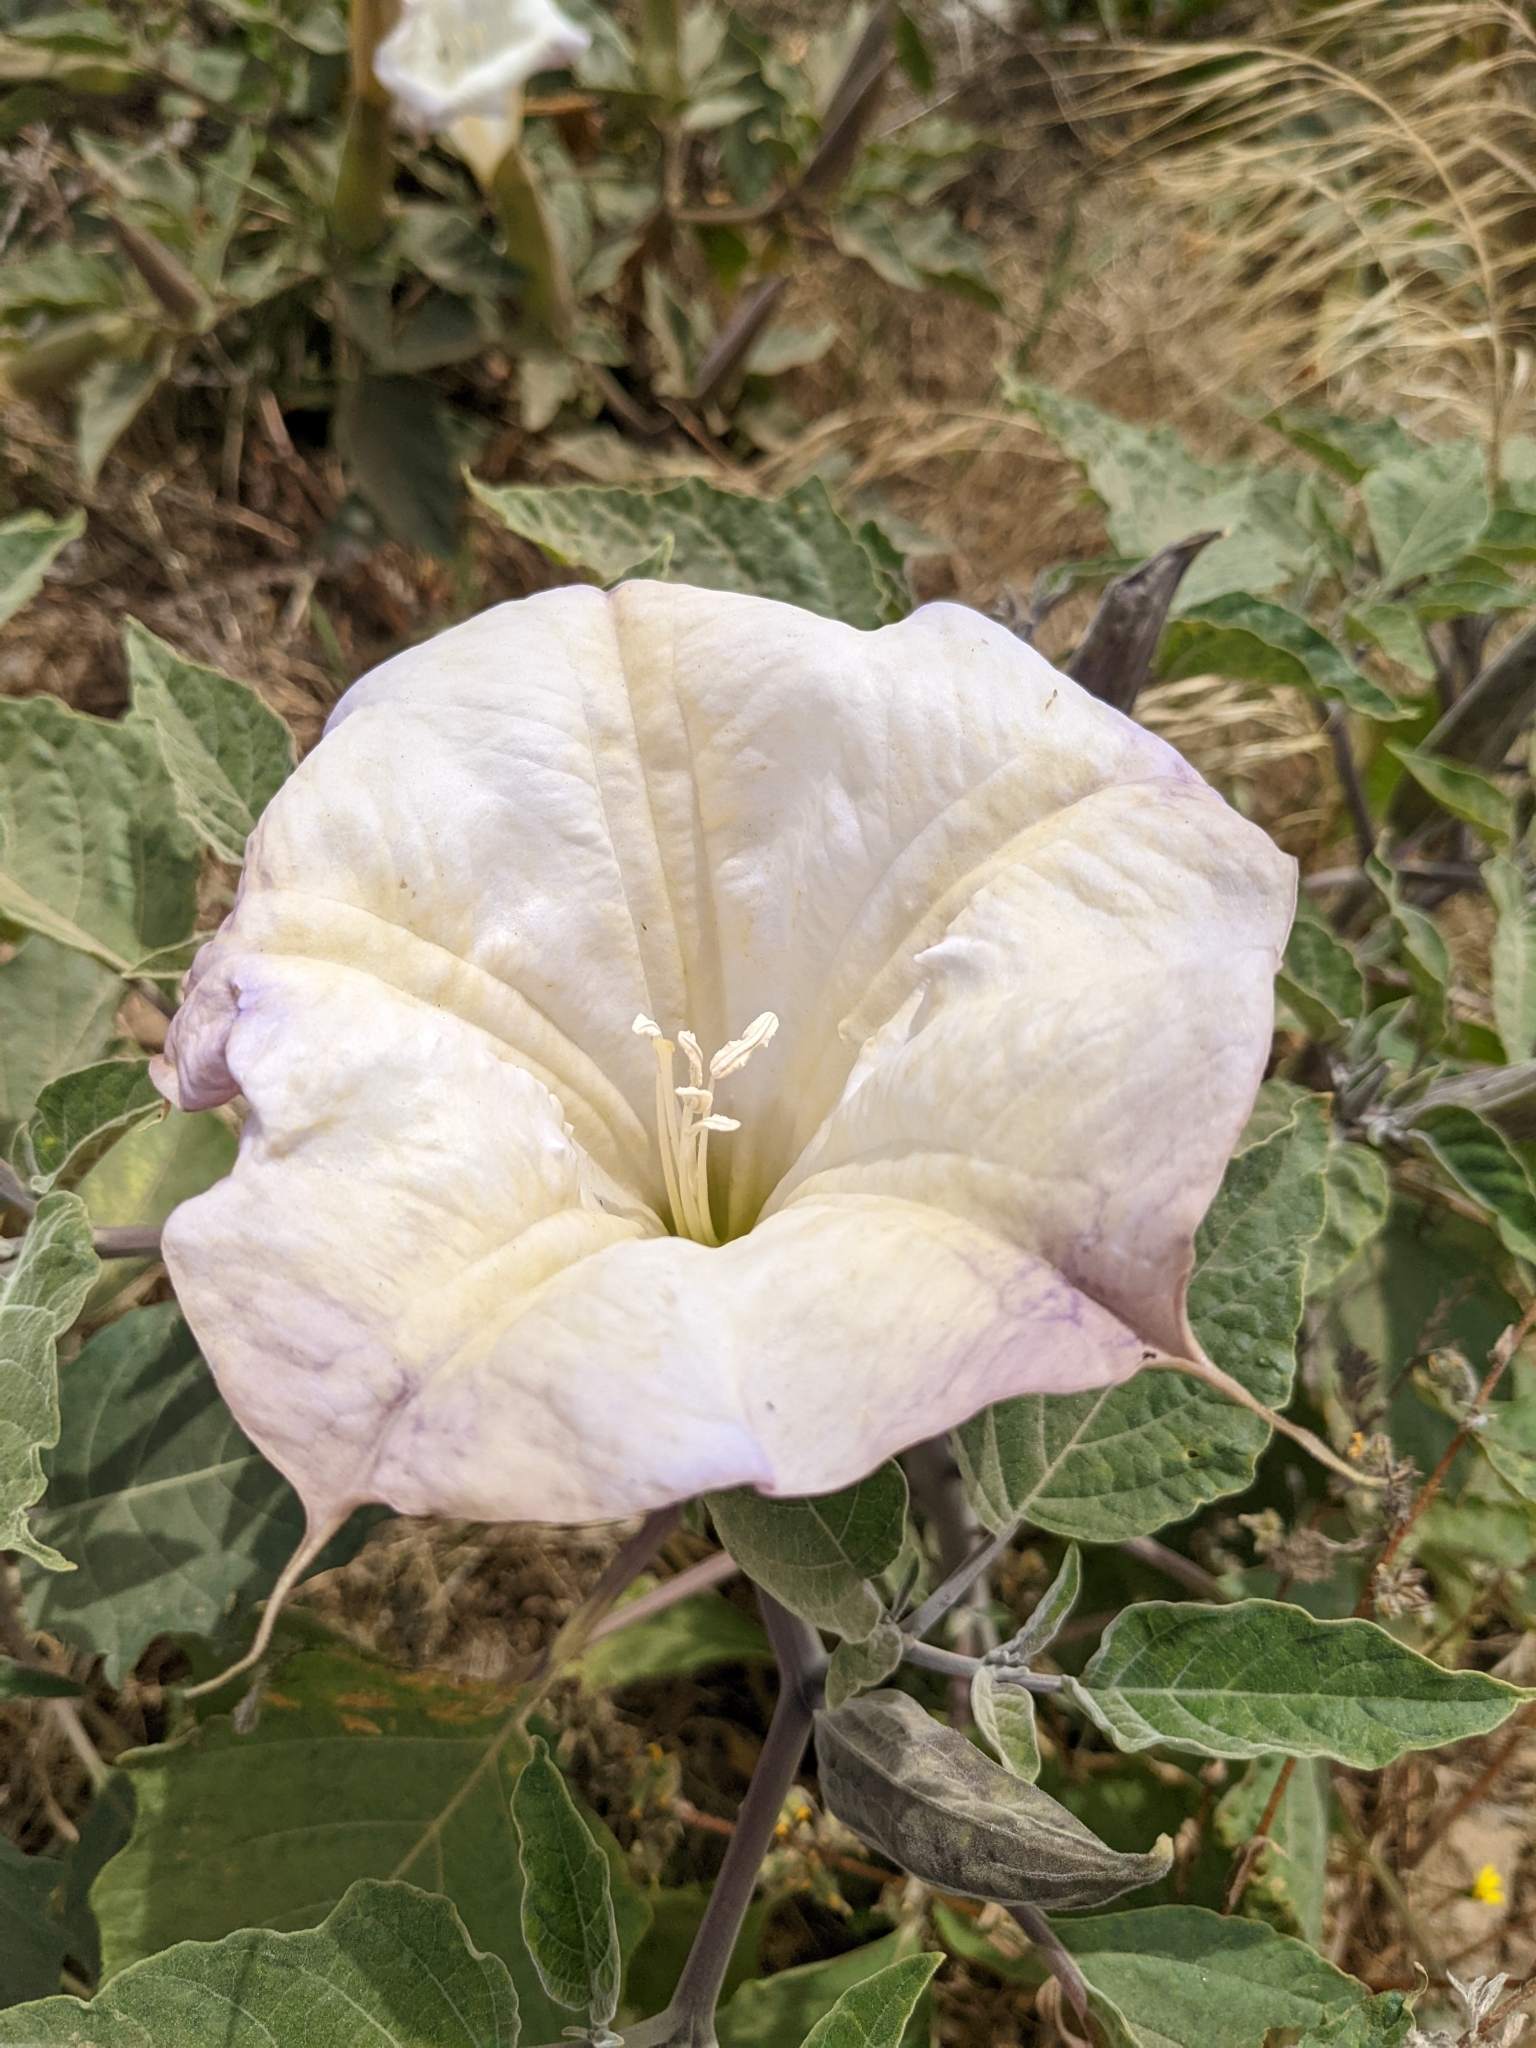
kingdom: Plantae
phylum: Tracheophyta
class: Magnoliopsida
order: Solanales
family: Solanaceae
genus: Datura
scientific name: Datura wrightii
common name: Sacred thorn-apple
